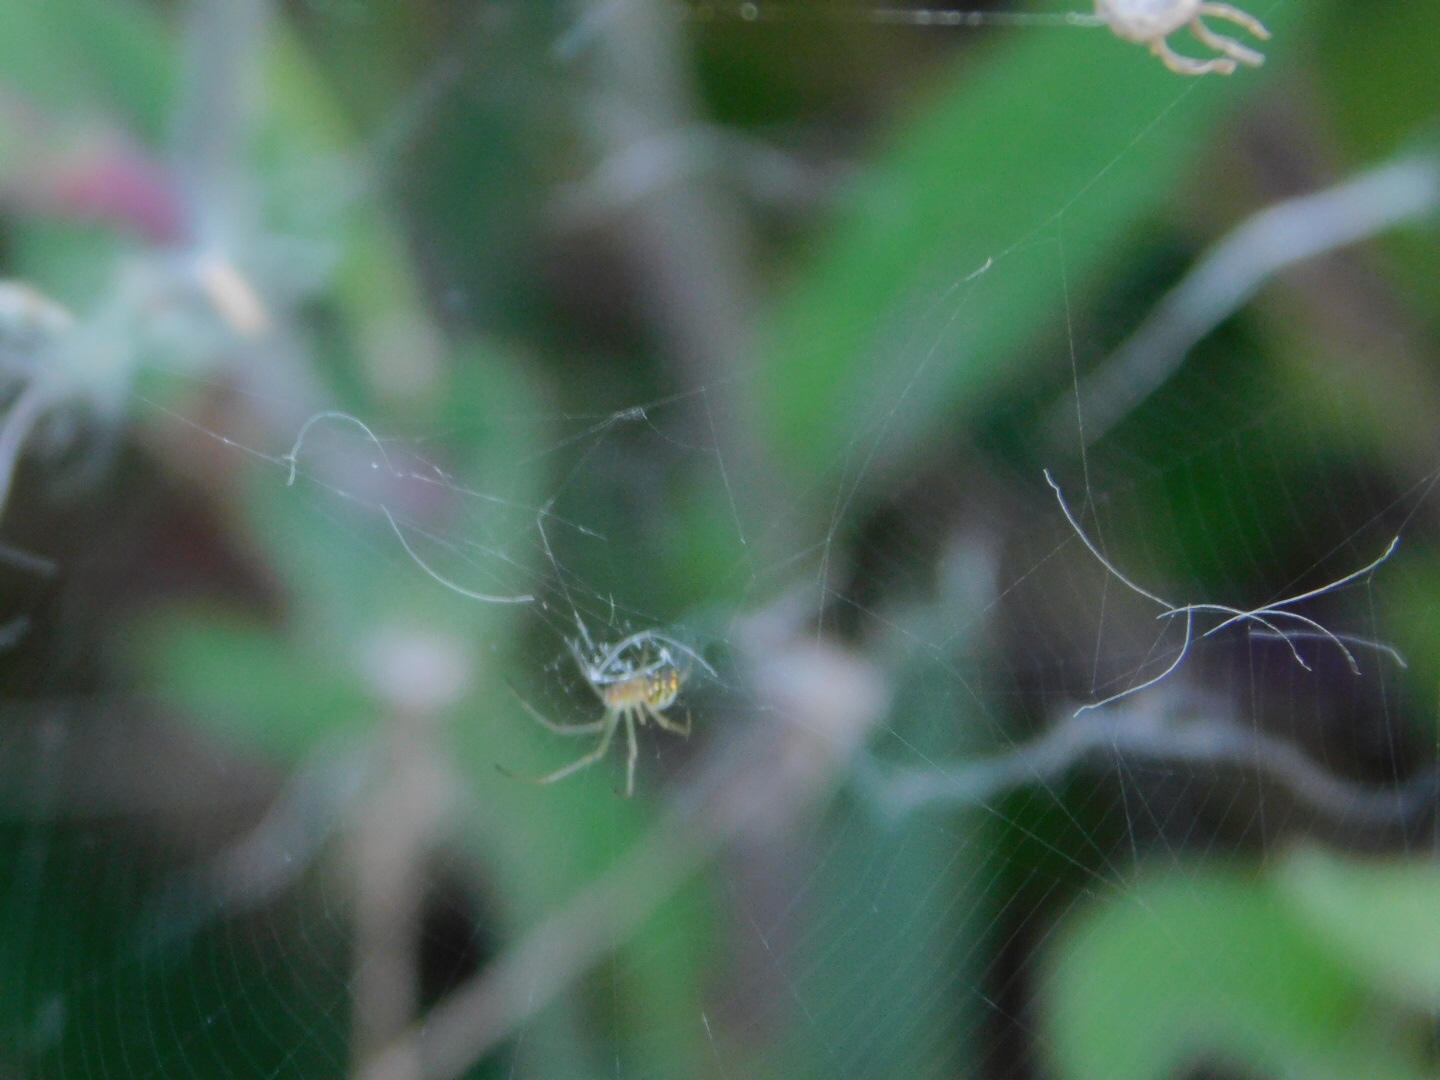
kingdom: Animalia
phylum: Arthropoda
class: Arachnida
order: Araneae
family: Tetragnathidae
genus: Leucauge
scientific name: Leucauge argyra
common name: Longjawed orb weavers
